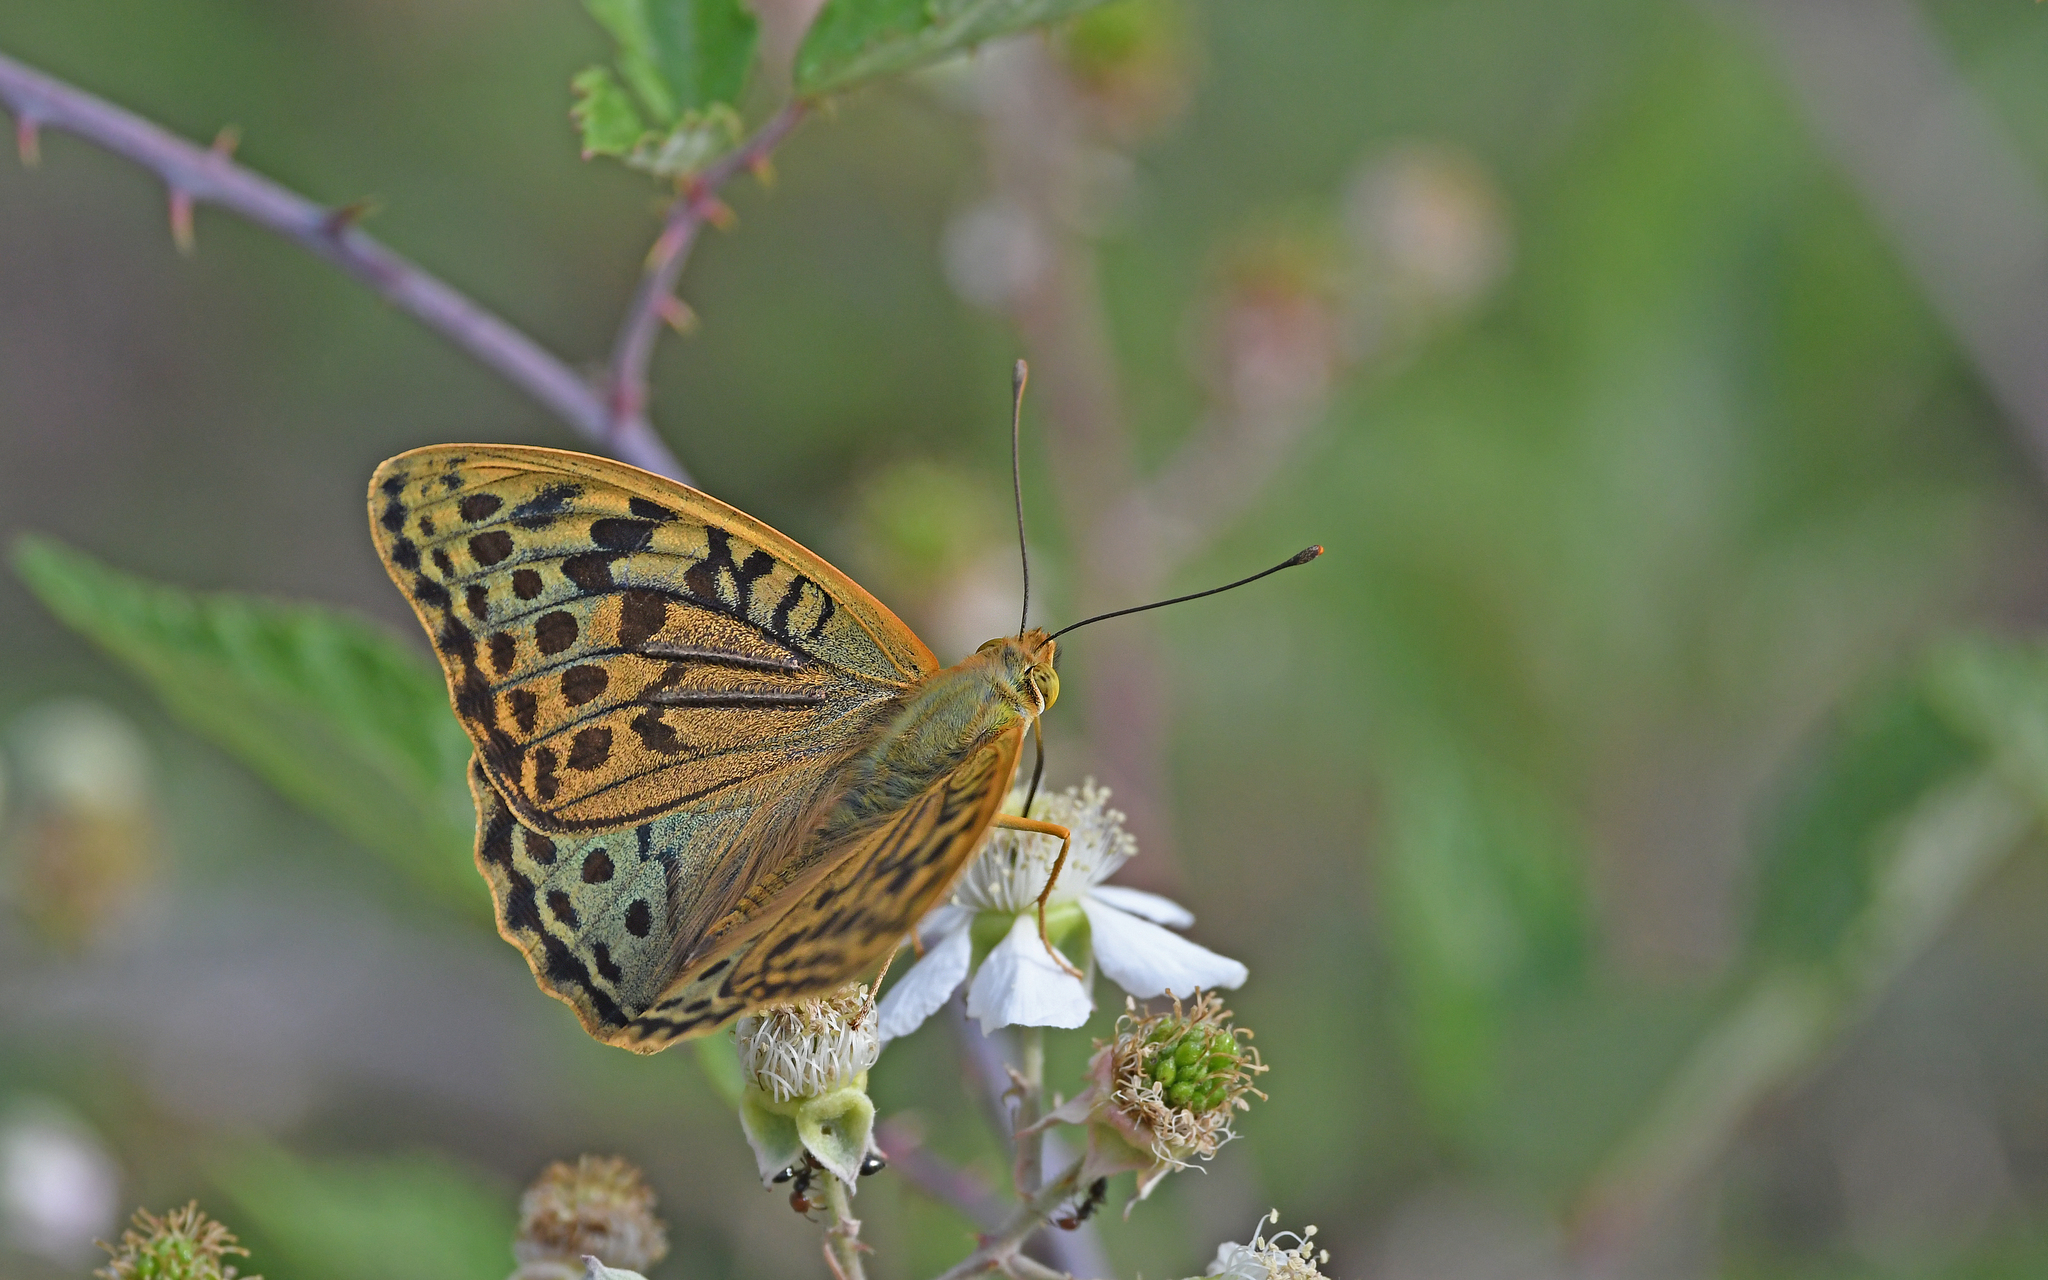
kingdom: Animalia
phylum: Arthropoda
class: Insecta
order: Lepidoptera
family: Nymphalidae
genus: Damora
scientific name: Damora pandora
